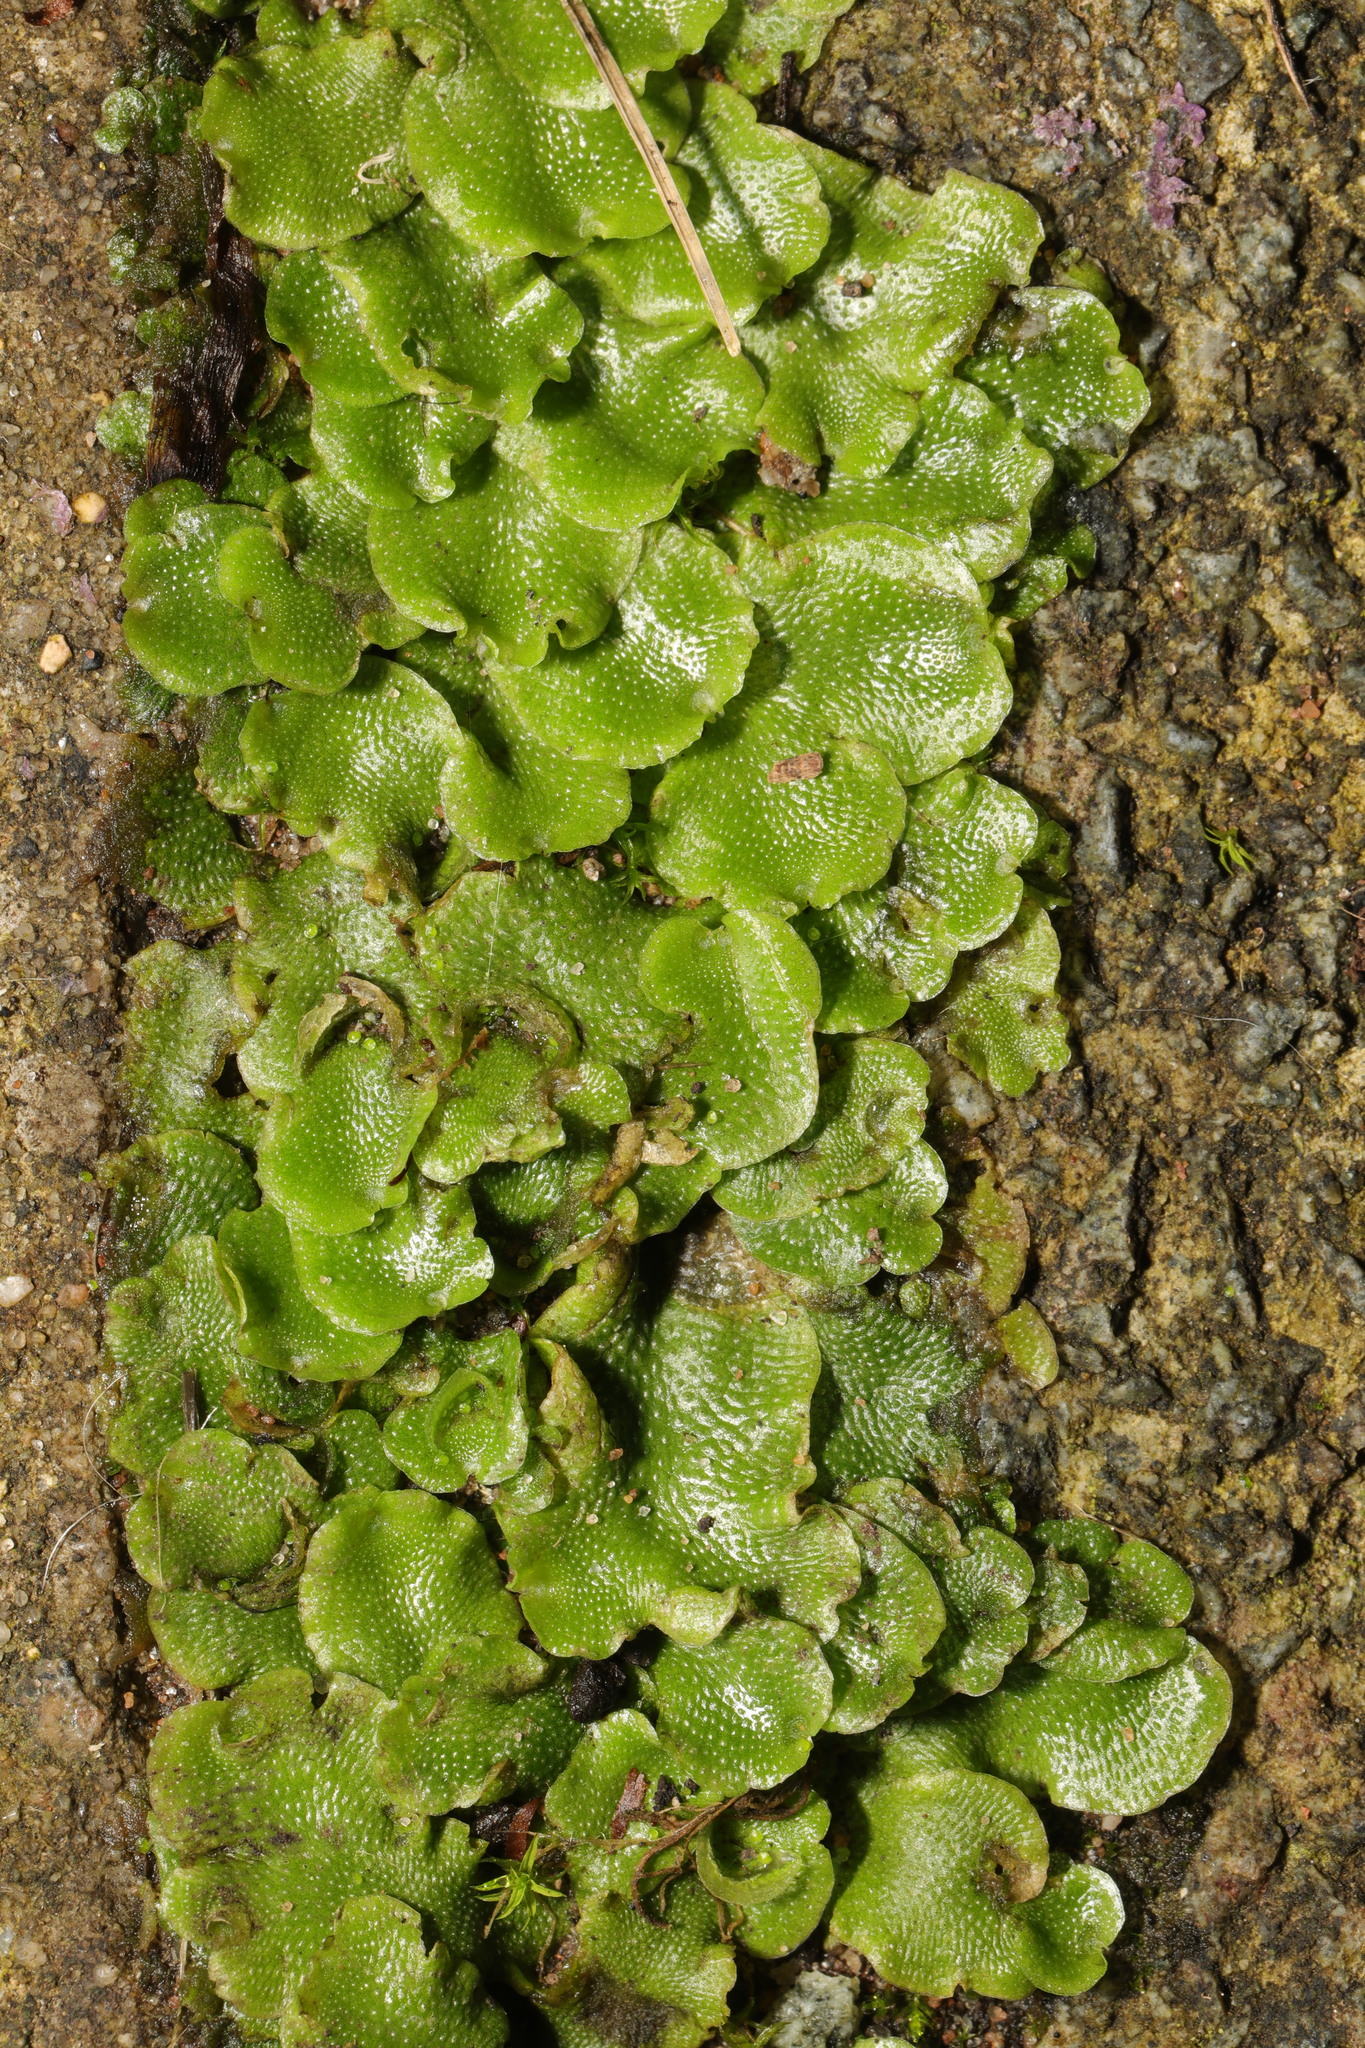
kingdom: Plantae
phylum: Marchantiophyta
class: Marchantiopsida
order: Lunulariales
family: Lunulariaceae
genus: Lunularia
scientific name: Lunularia cruciata
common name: Crescent-cup liverwort
